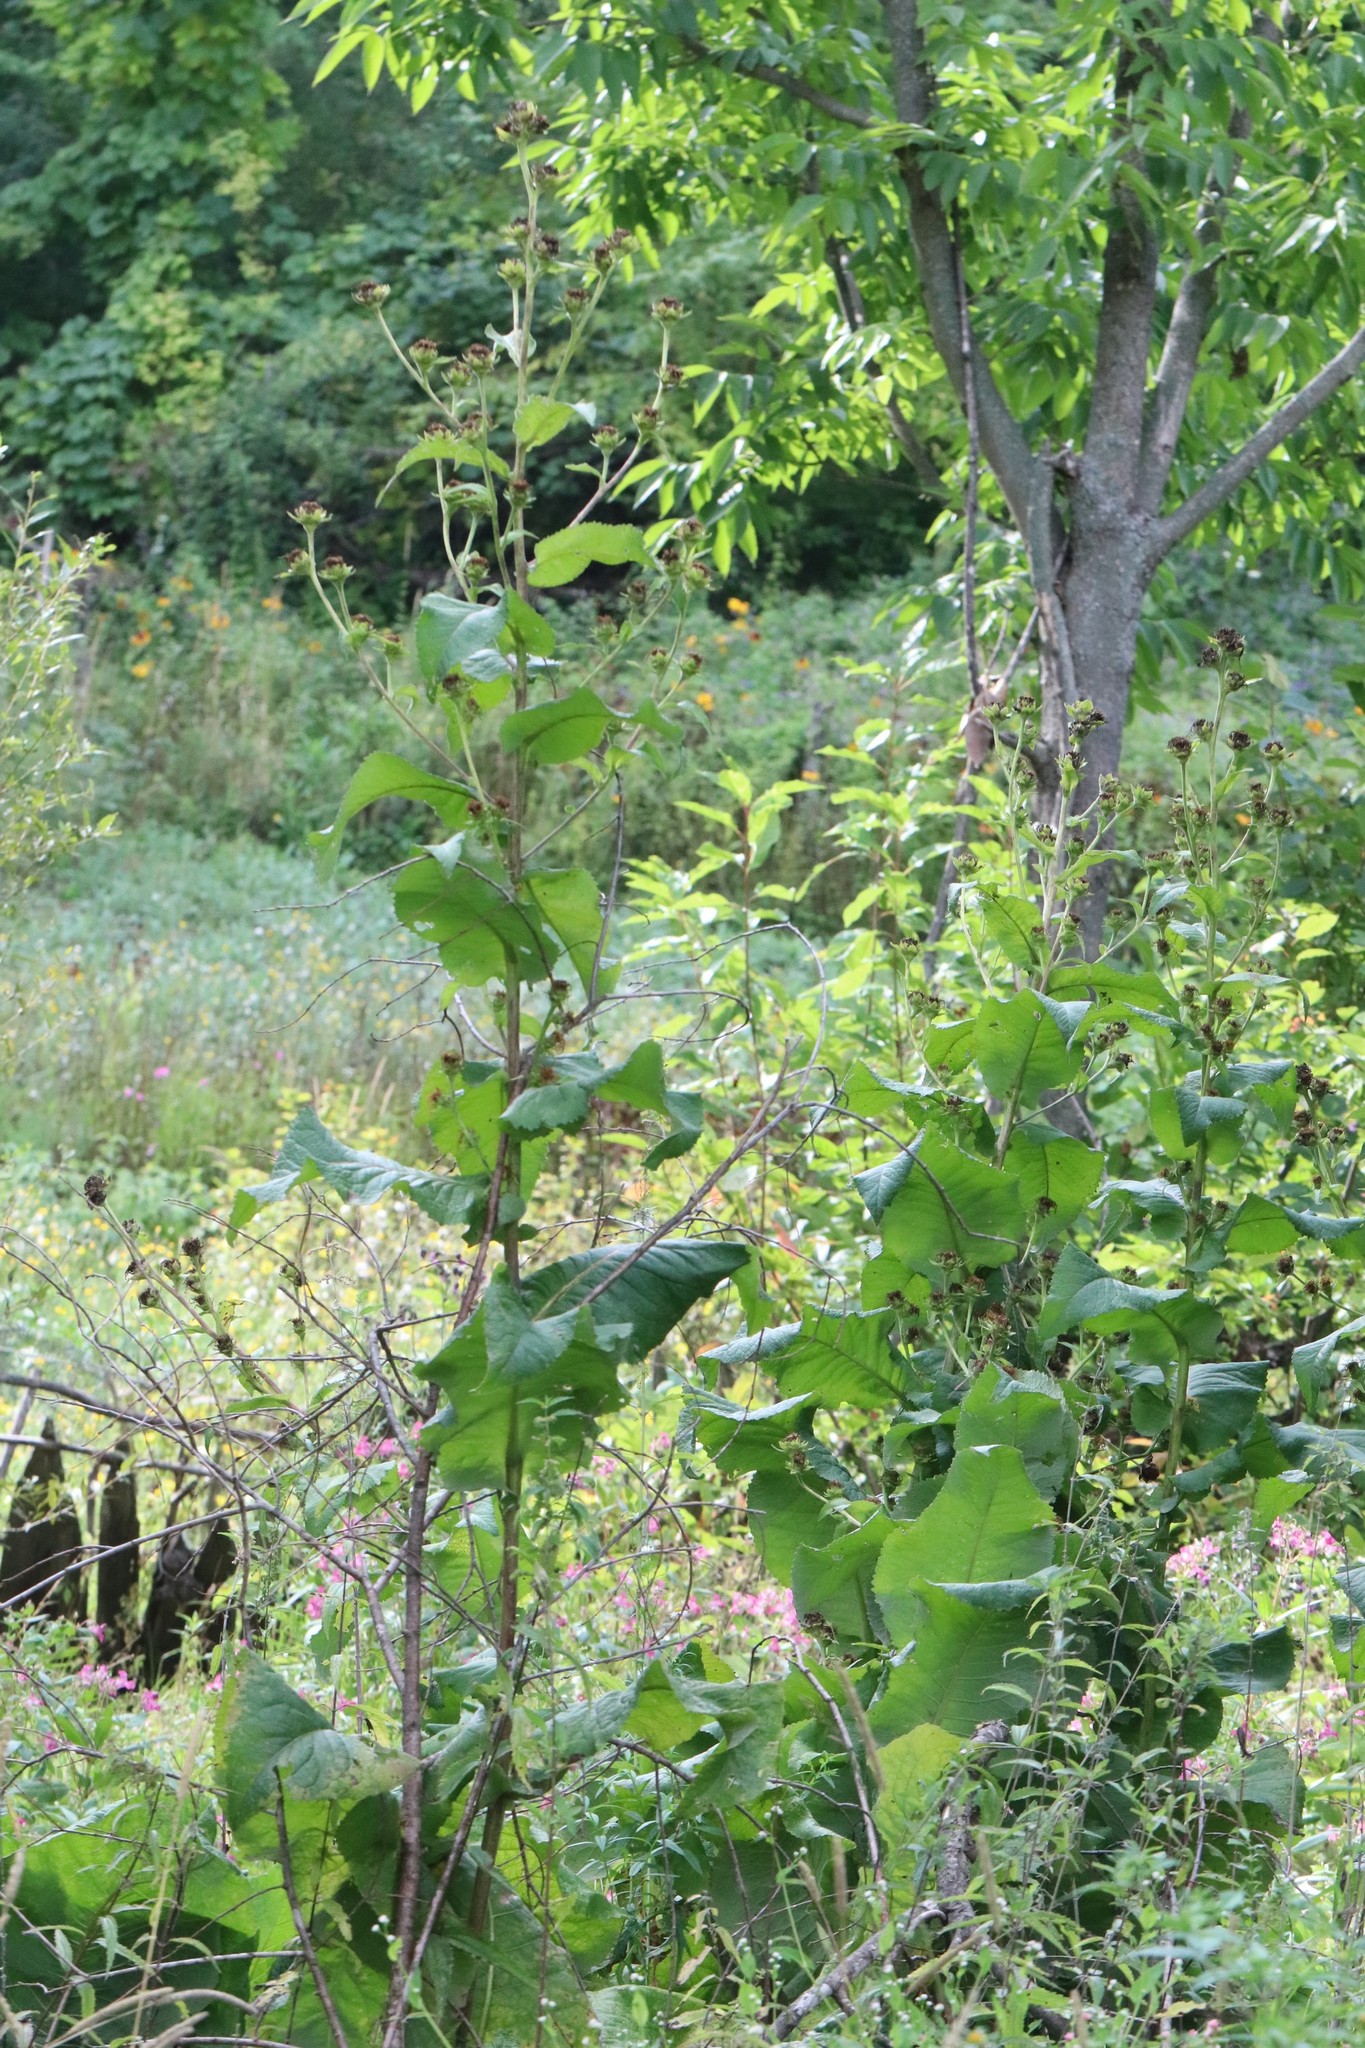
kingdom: Plantae
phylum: Tracheophyta
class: Magnoliopsida
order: Asterales
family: Asteraceae
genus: Inula
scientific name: Inula helenium
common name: Elecampane
